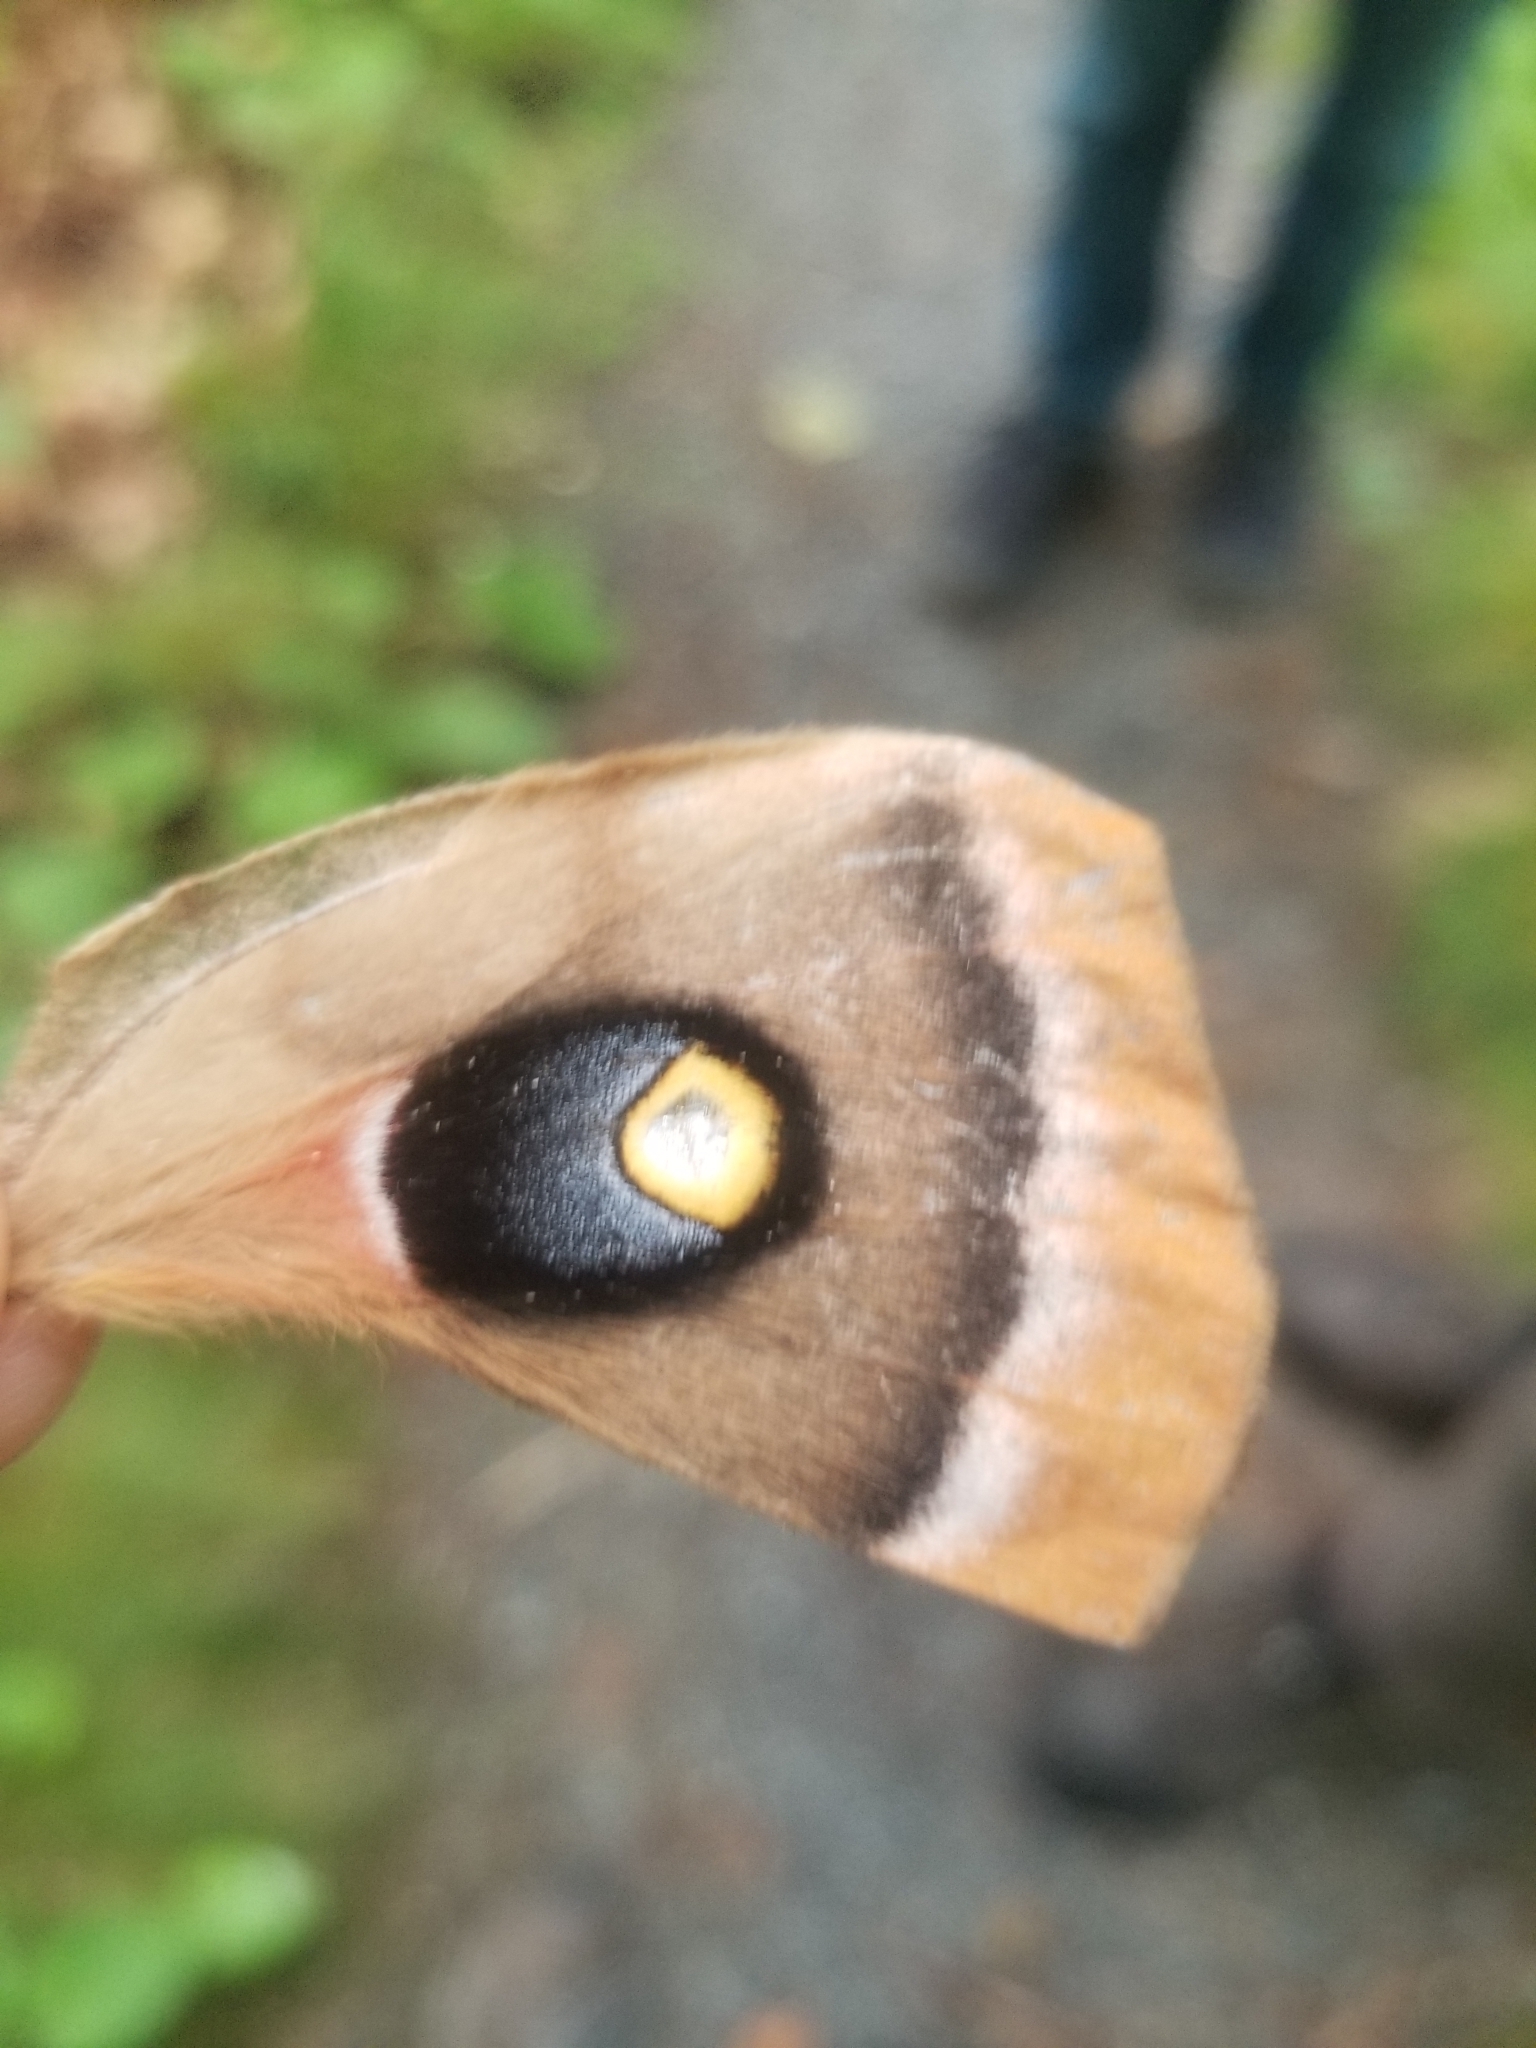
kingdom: Animalia
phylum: Arthropoda
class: Insecta
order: Lepidoptera
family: Saturniidae
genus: Antheraea
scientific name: Antheraea polyphemus
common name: Polyphemus moth
